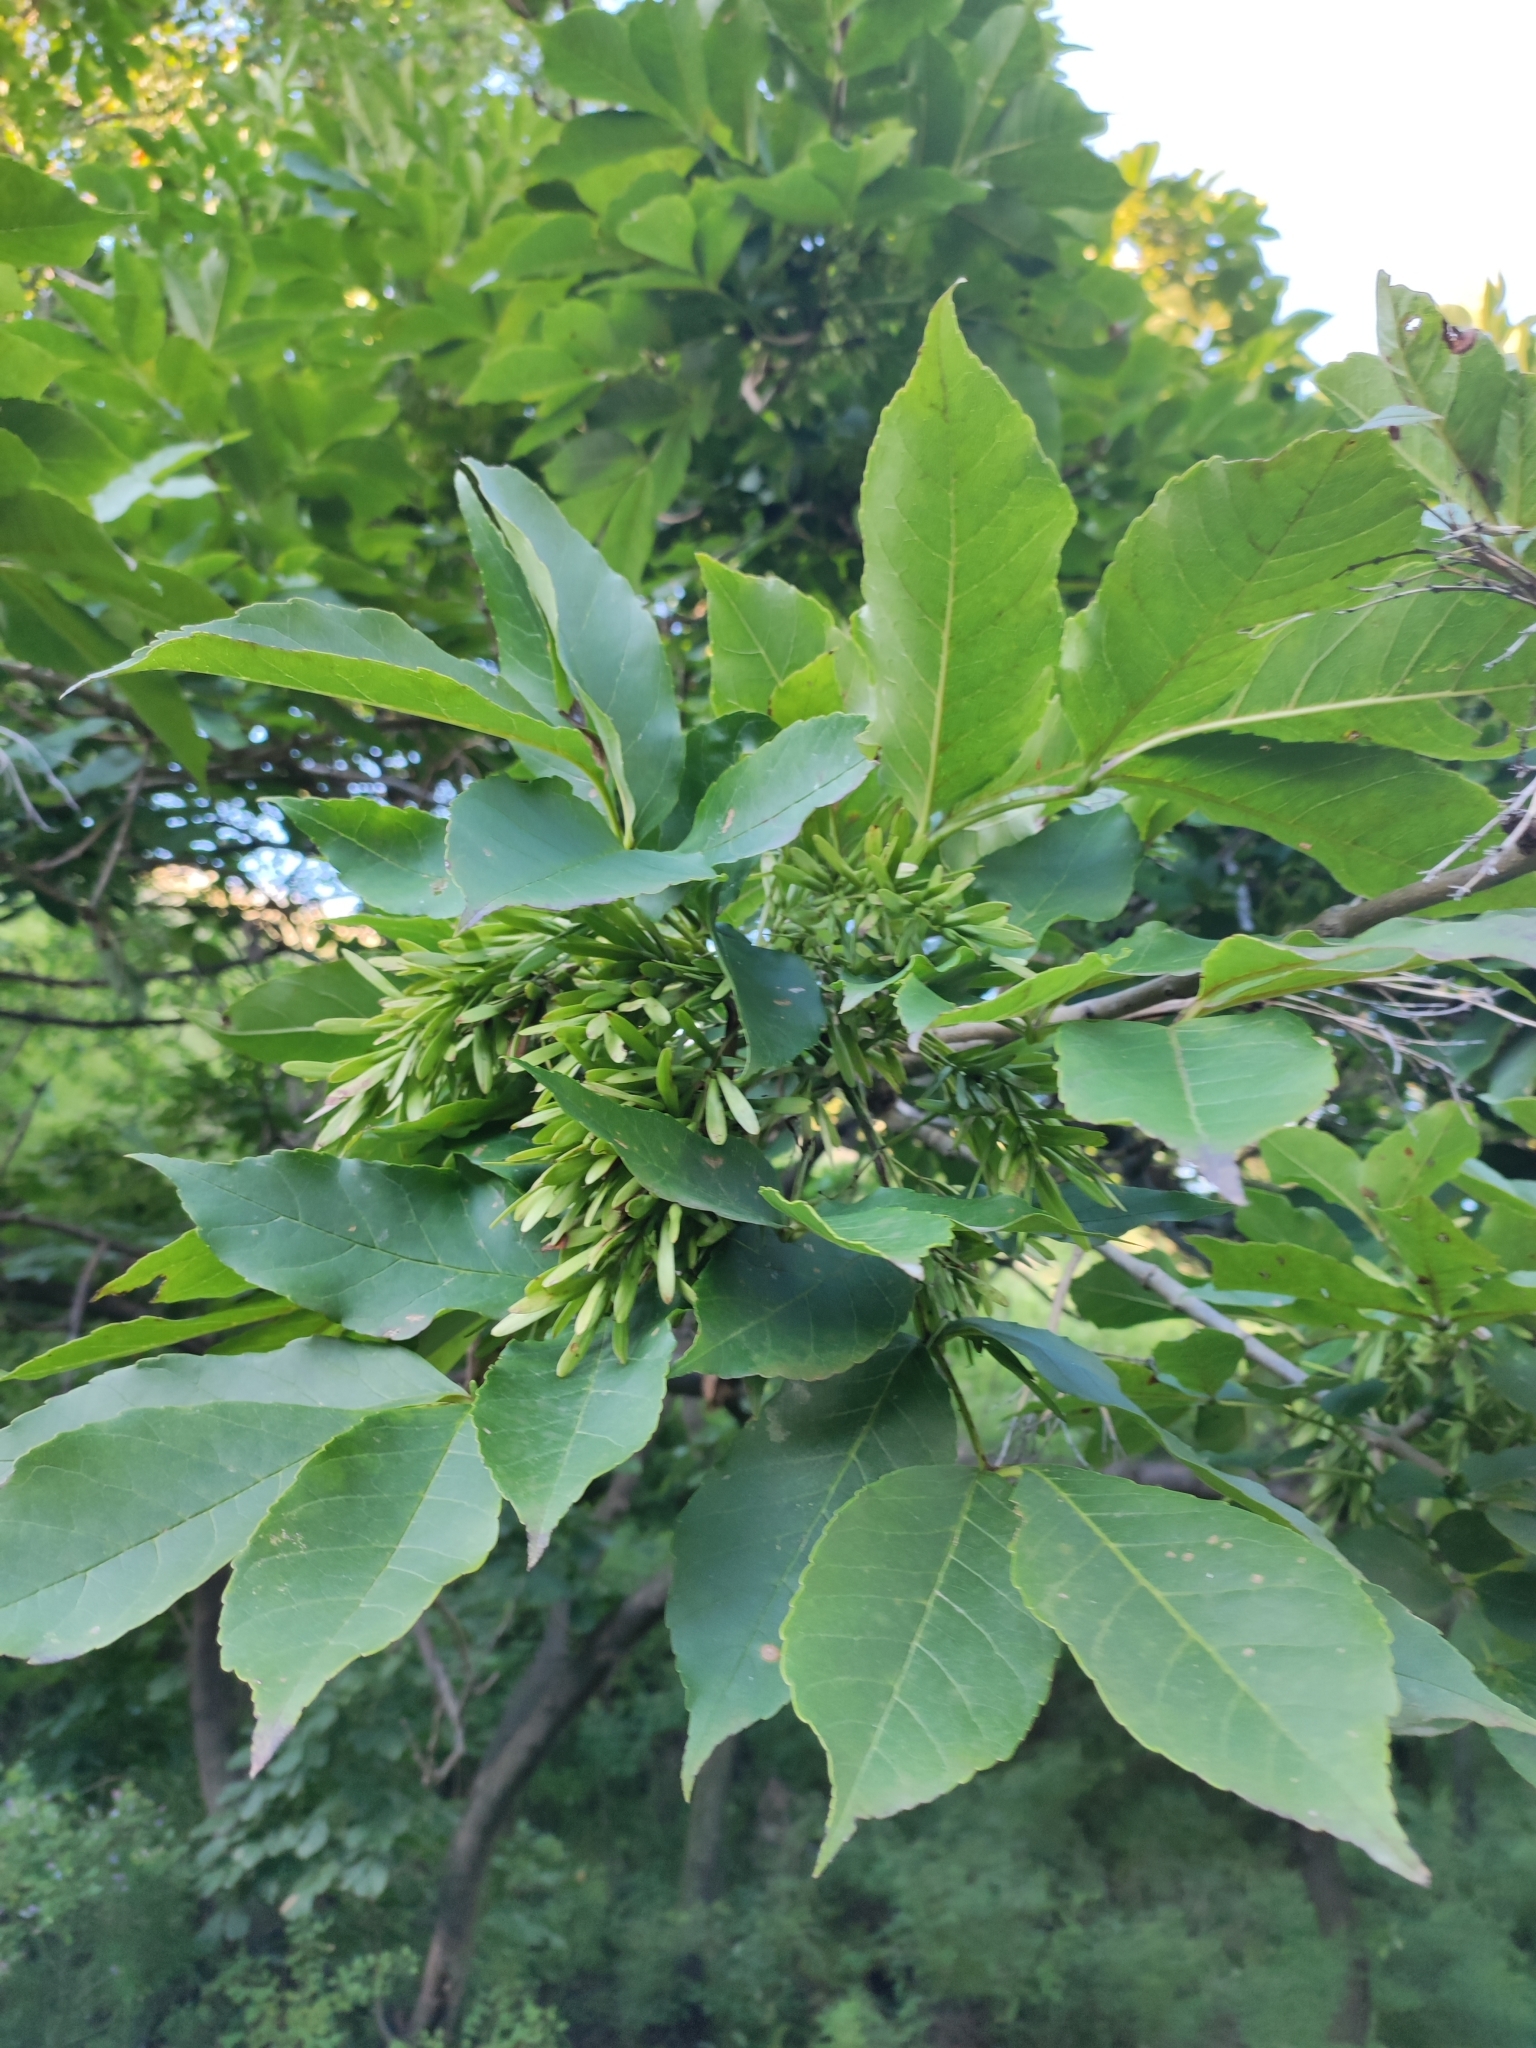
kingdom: Plantae
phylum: Tracheophyta
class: Magnoliopsida
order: Lamiales
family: Oleaceae
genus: Fraxinus
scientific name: Fraxinus chinensis
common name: Chinese ash
